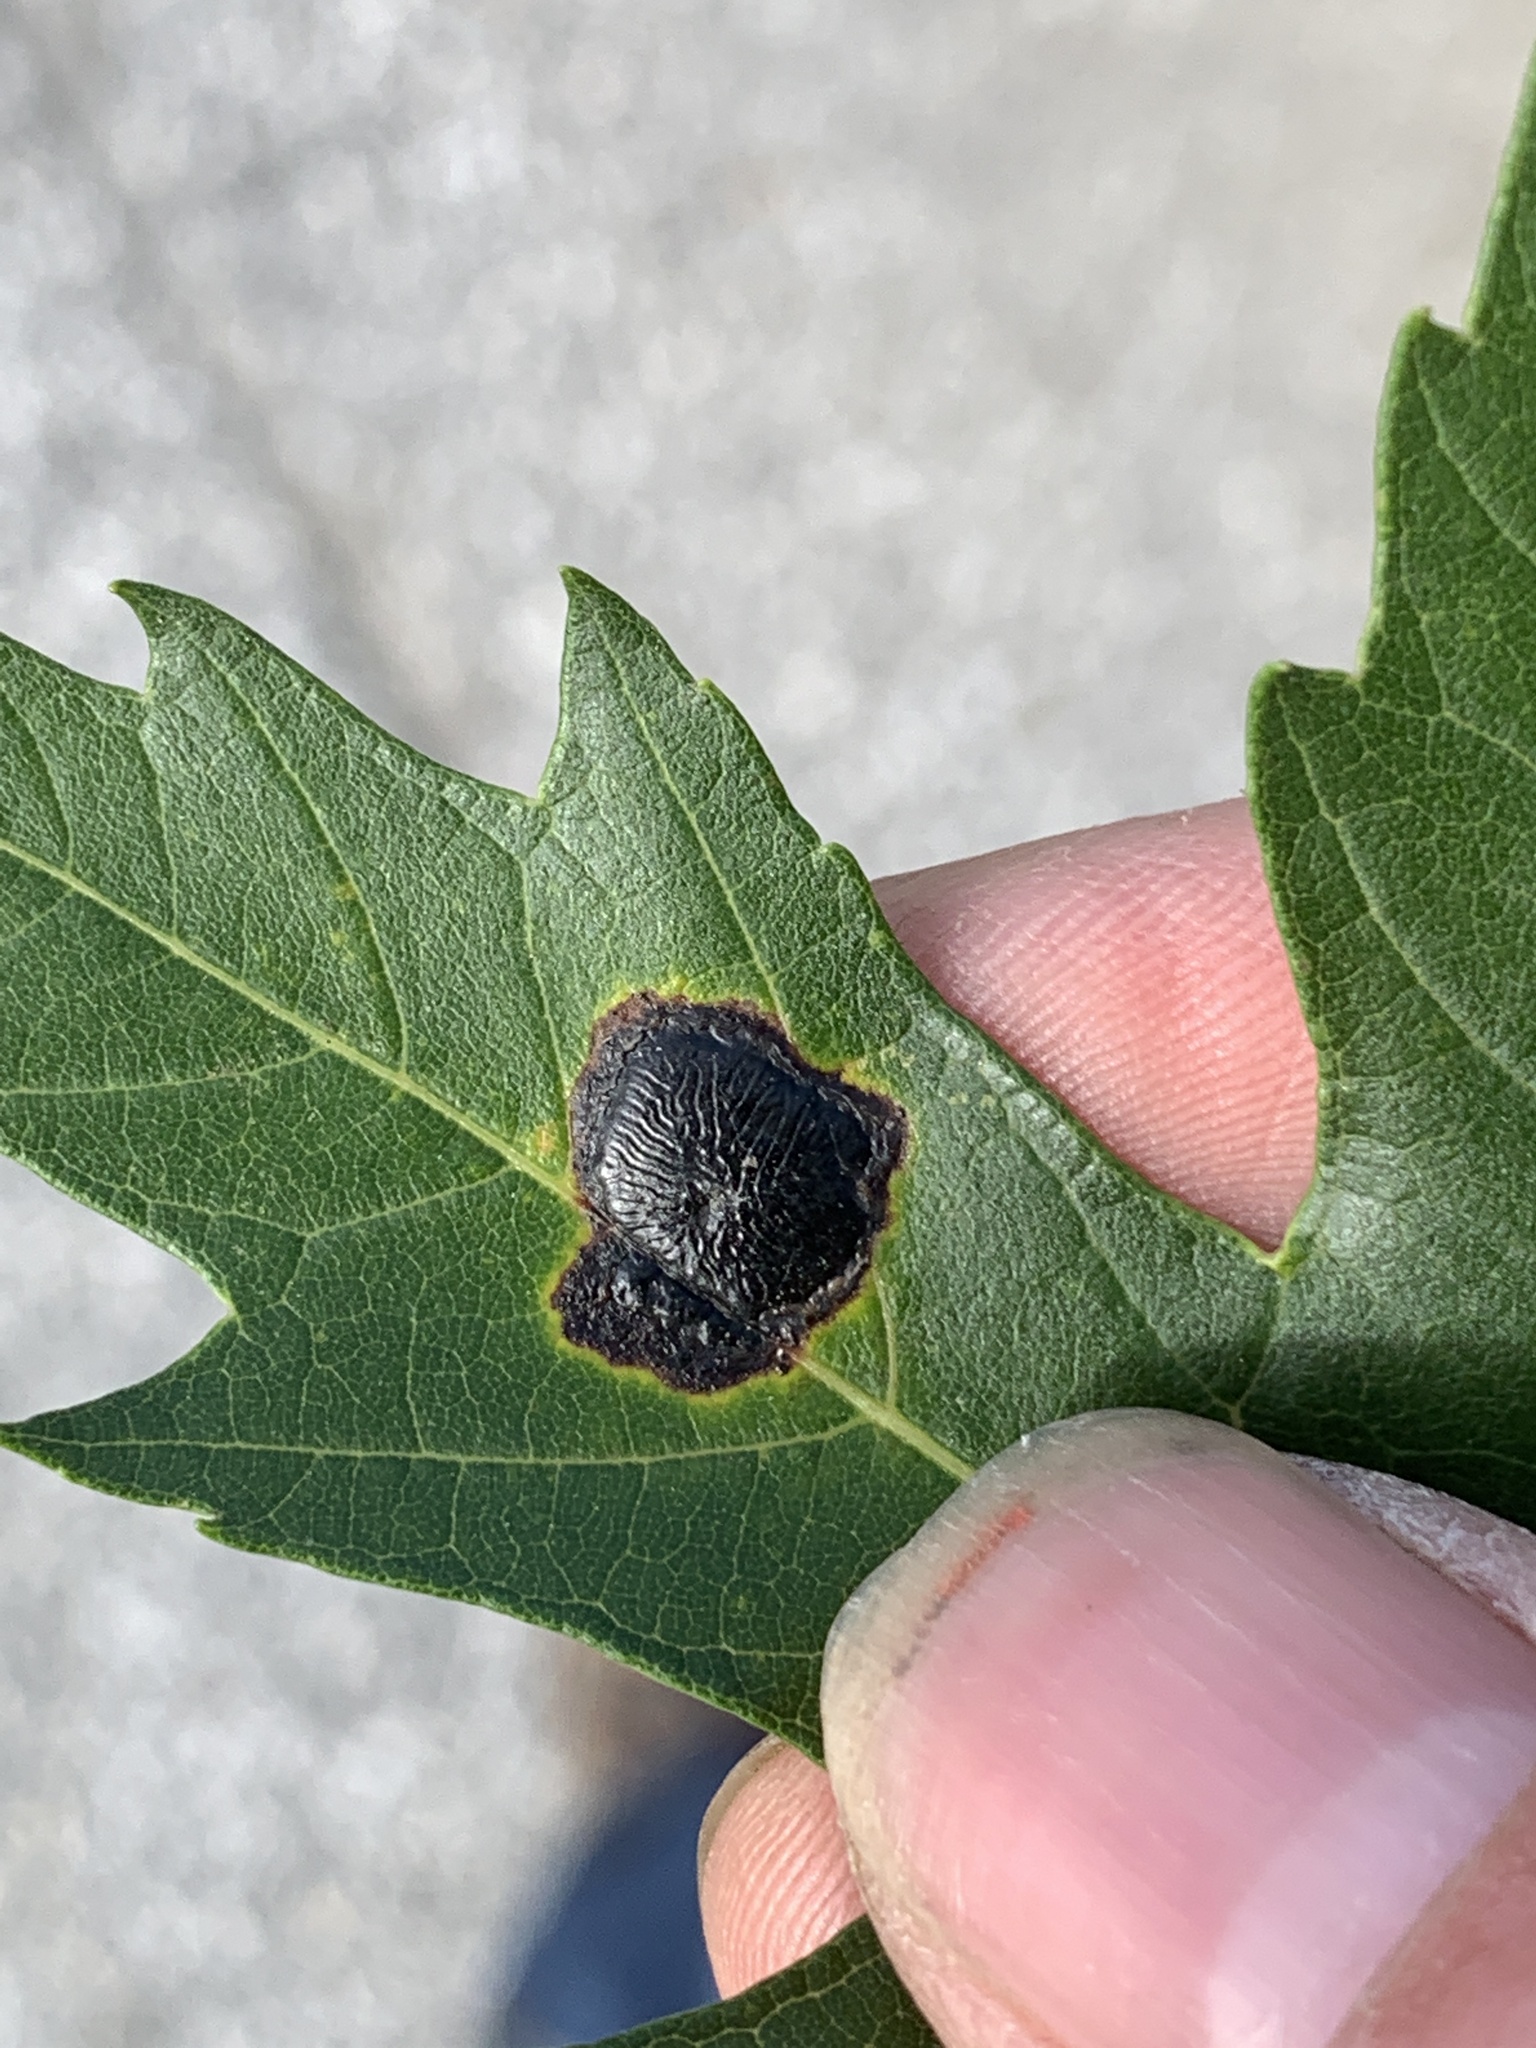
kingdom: Fungi
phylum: Ascomycota
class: Leotiomycetes
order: Rhytismatales
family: Rhytismataceae
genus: Rhytisma
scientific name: Rhytisma americanum
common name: American tar spot
